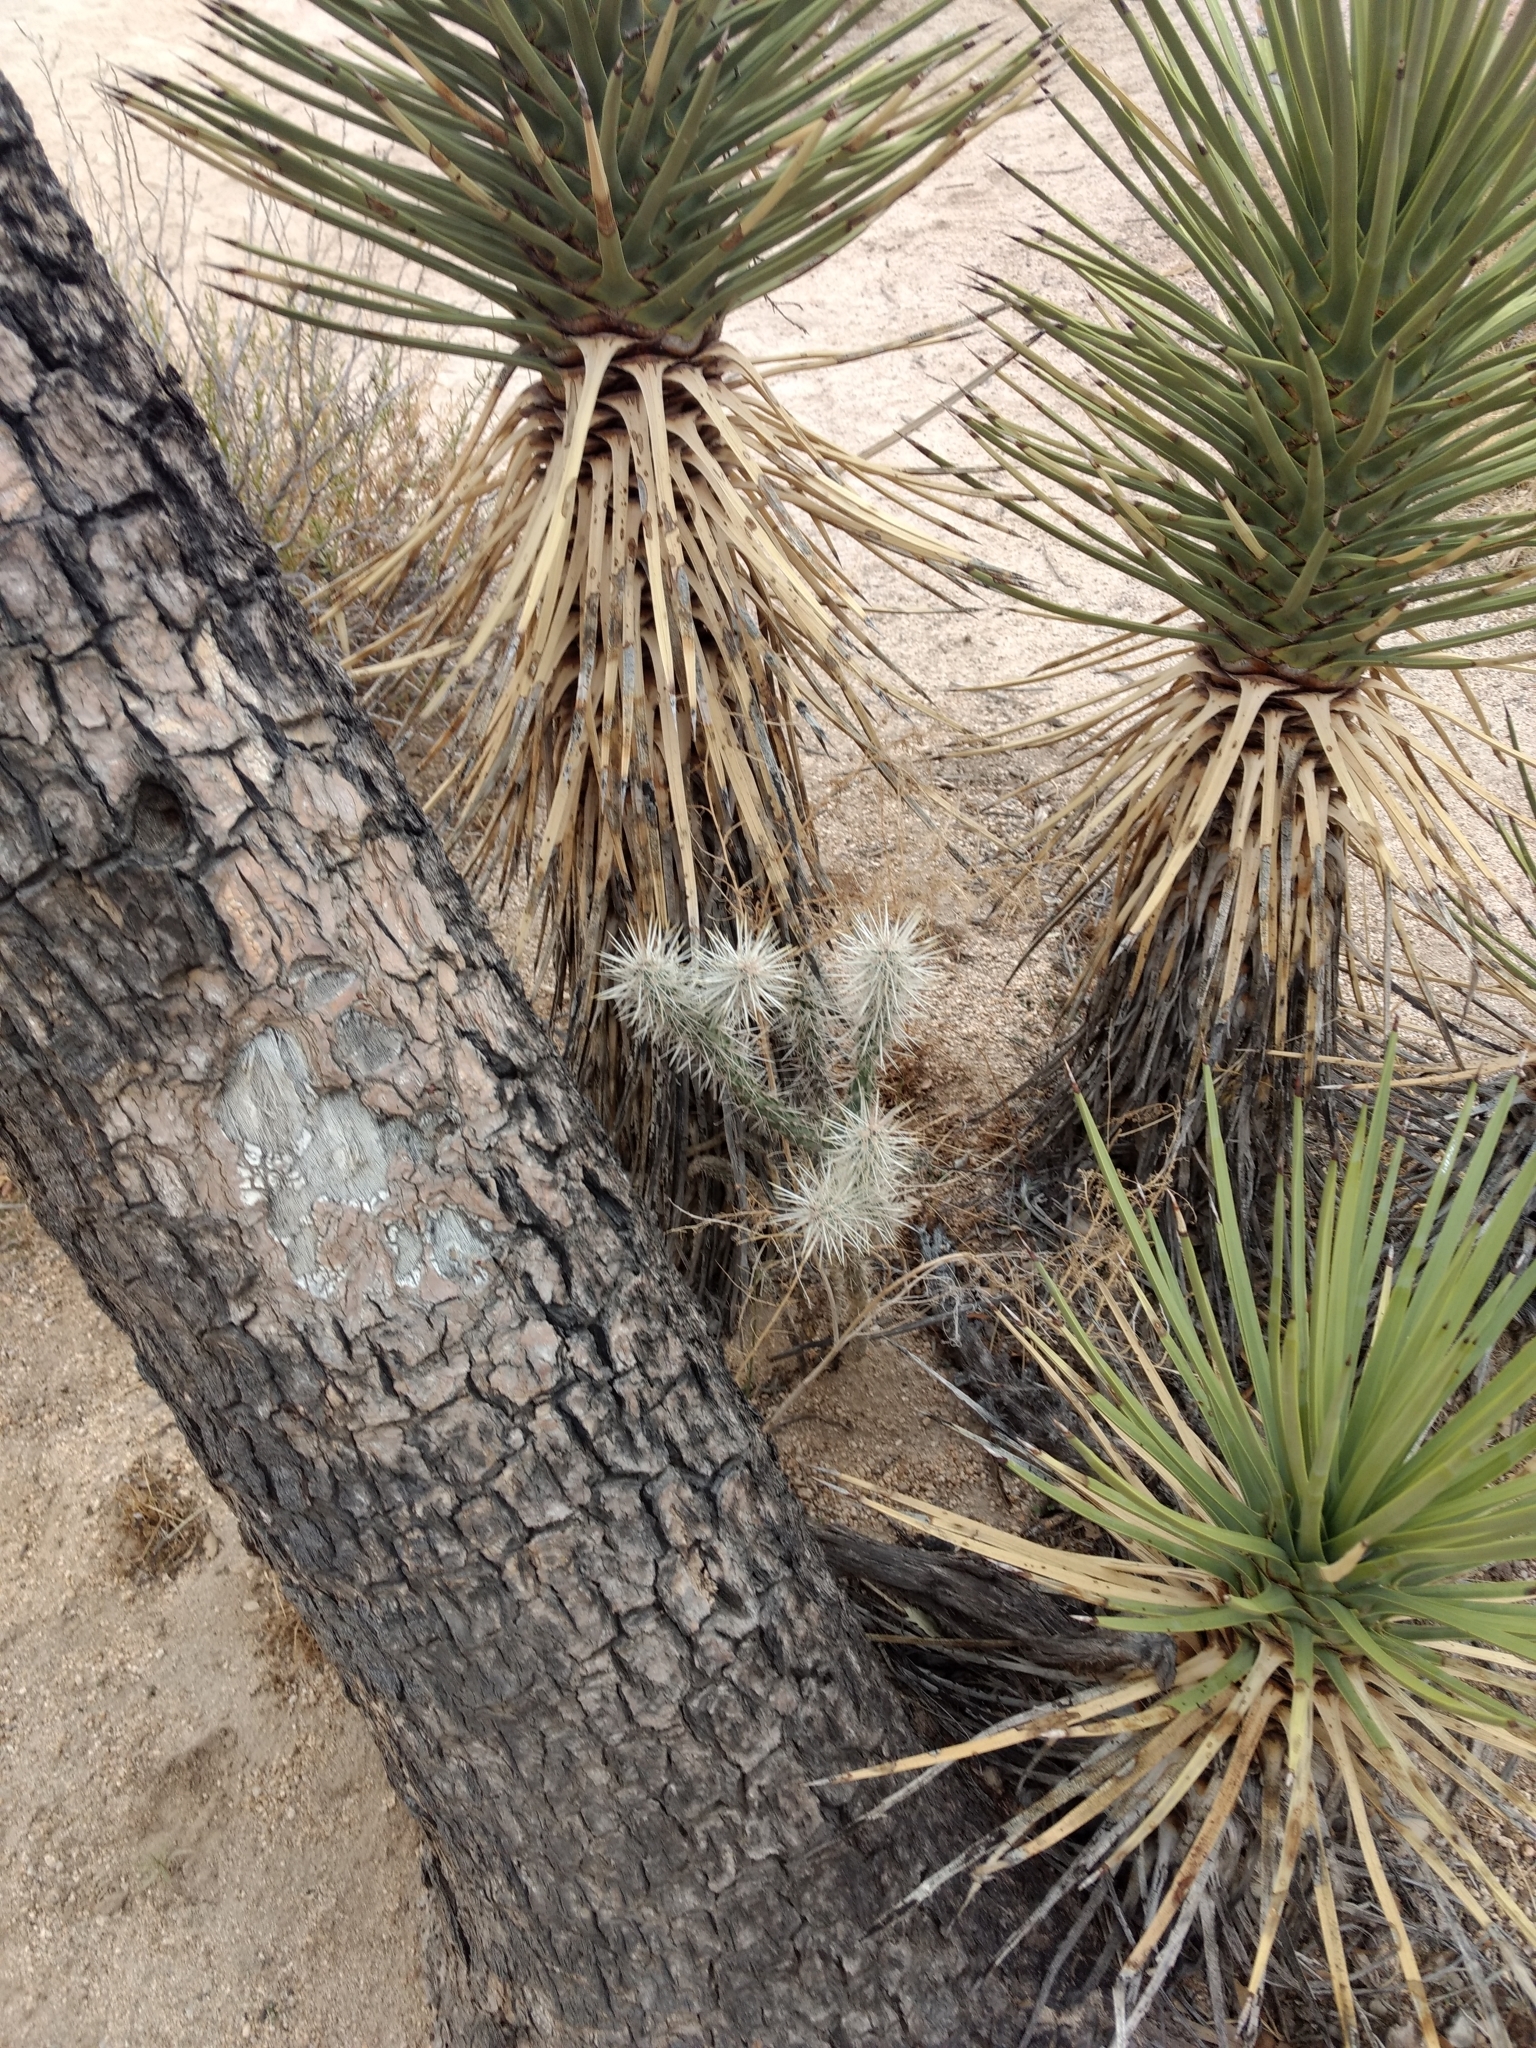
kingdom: Plantae
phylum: Tracheophyta
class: Magnoliopsida
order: Caryophyllales
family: Cactaceae
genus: Cylindropuntia
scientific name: Cylindropuntia echinocarpa
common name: Ground cholla
